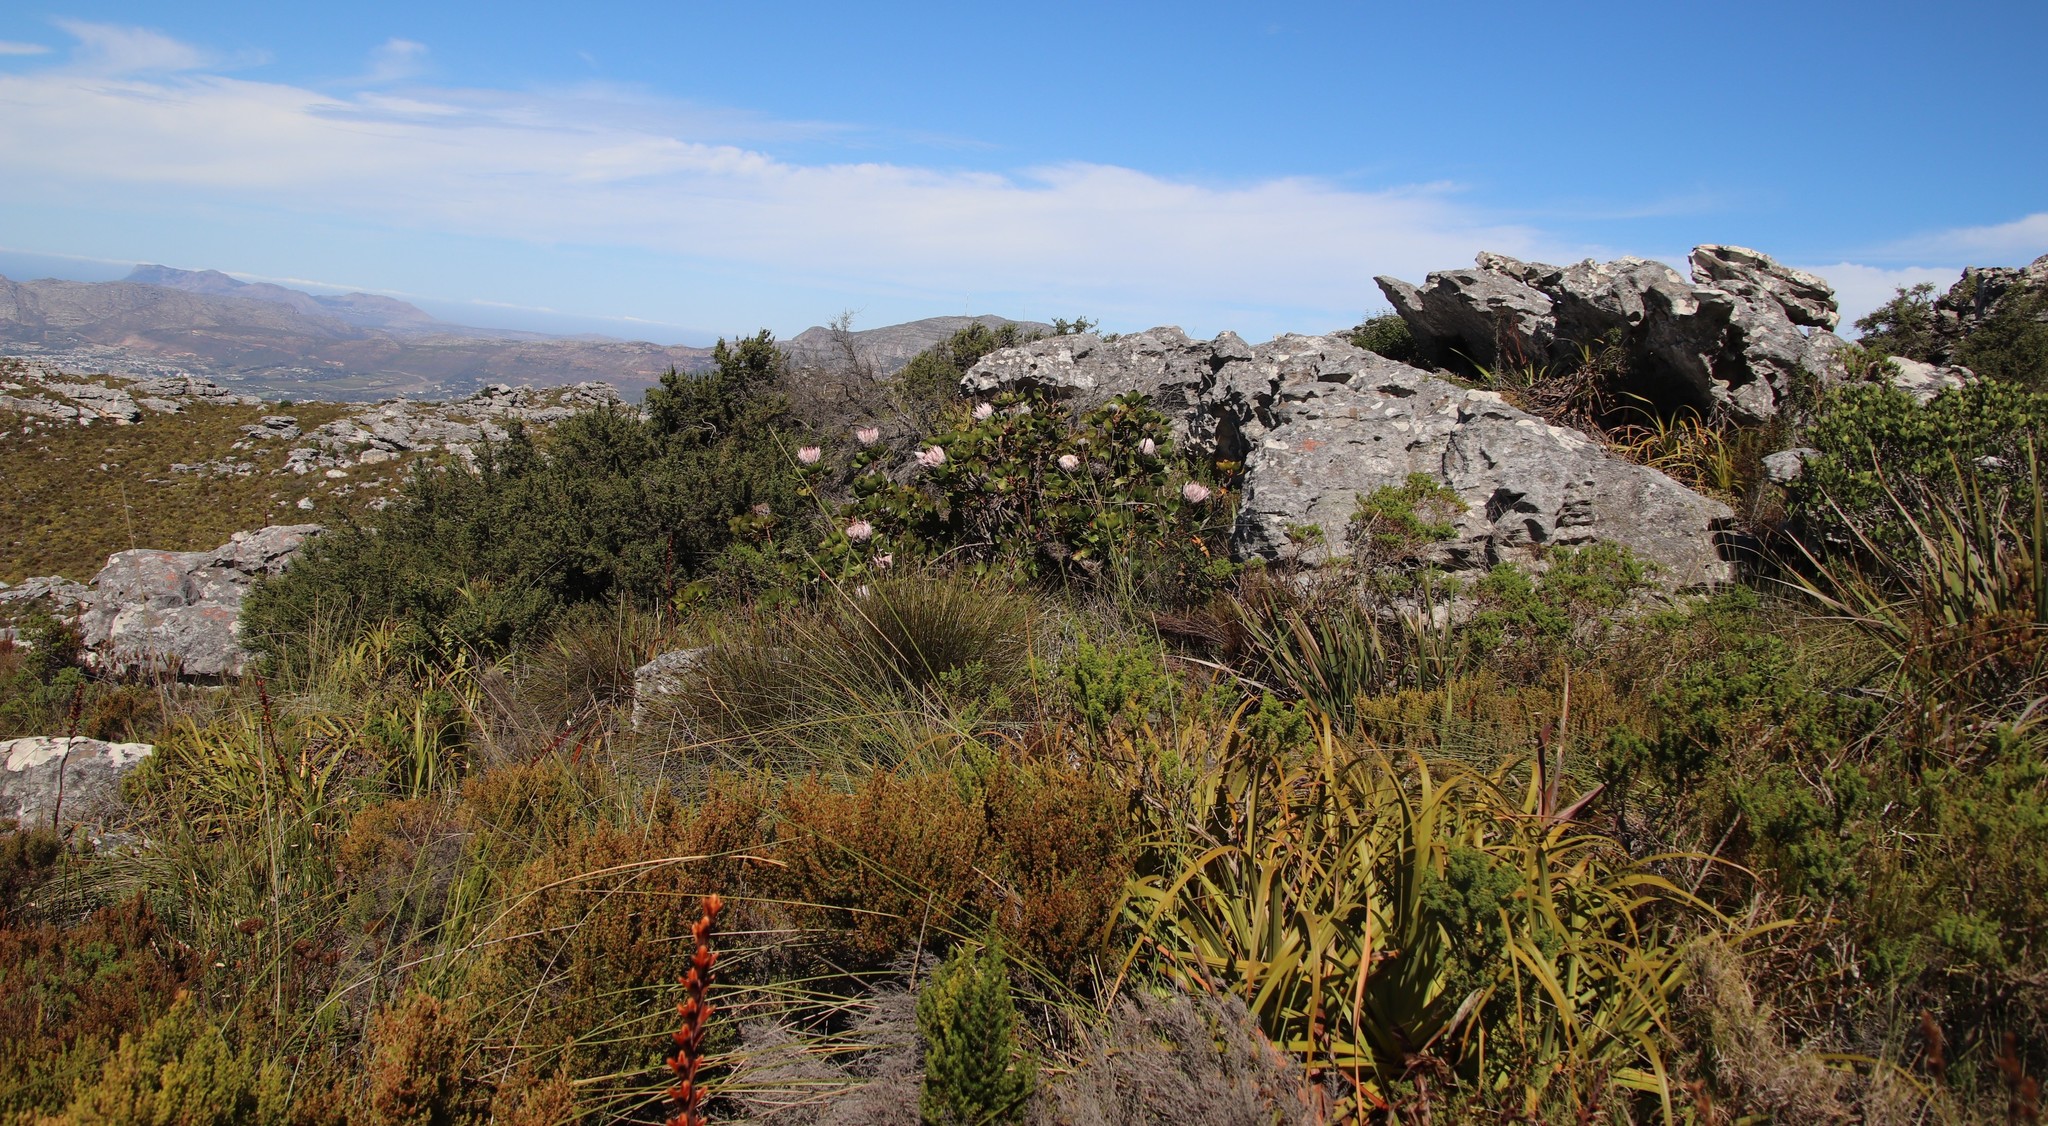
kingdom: Plantae
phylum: Tracheophyta
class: Magnoliopsida
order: Proteales
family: Proteaceae
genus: Protea
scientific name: Protea cynaroides
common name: King protea
